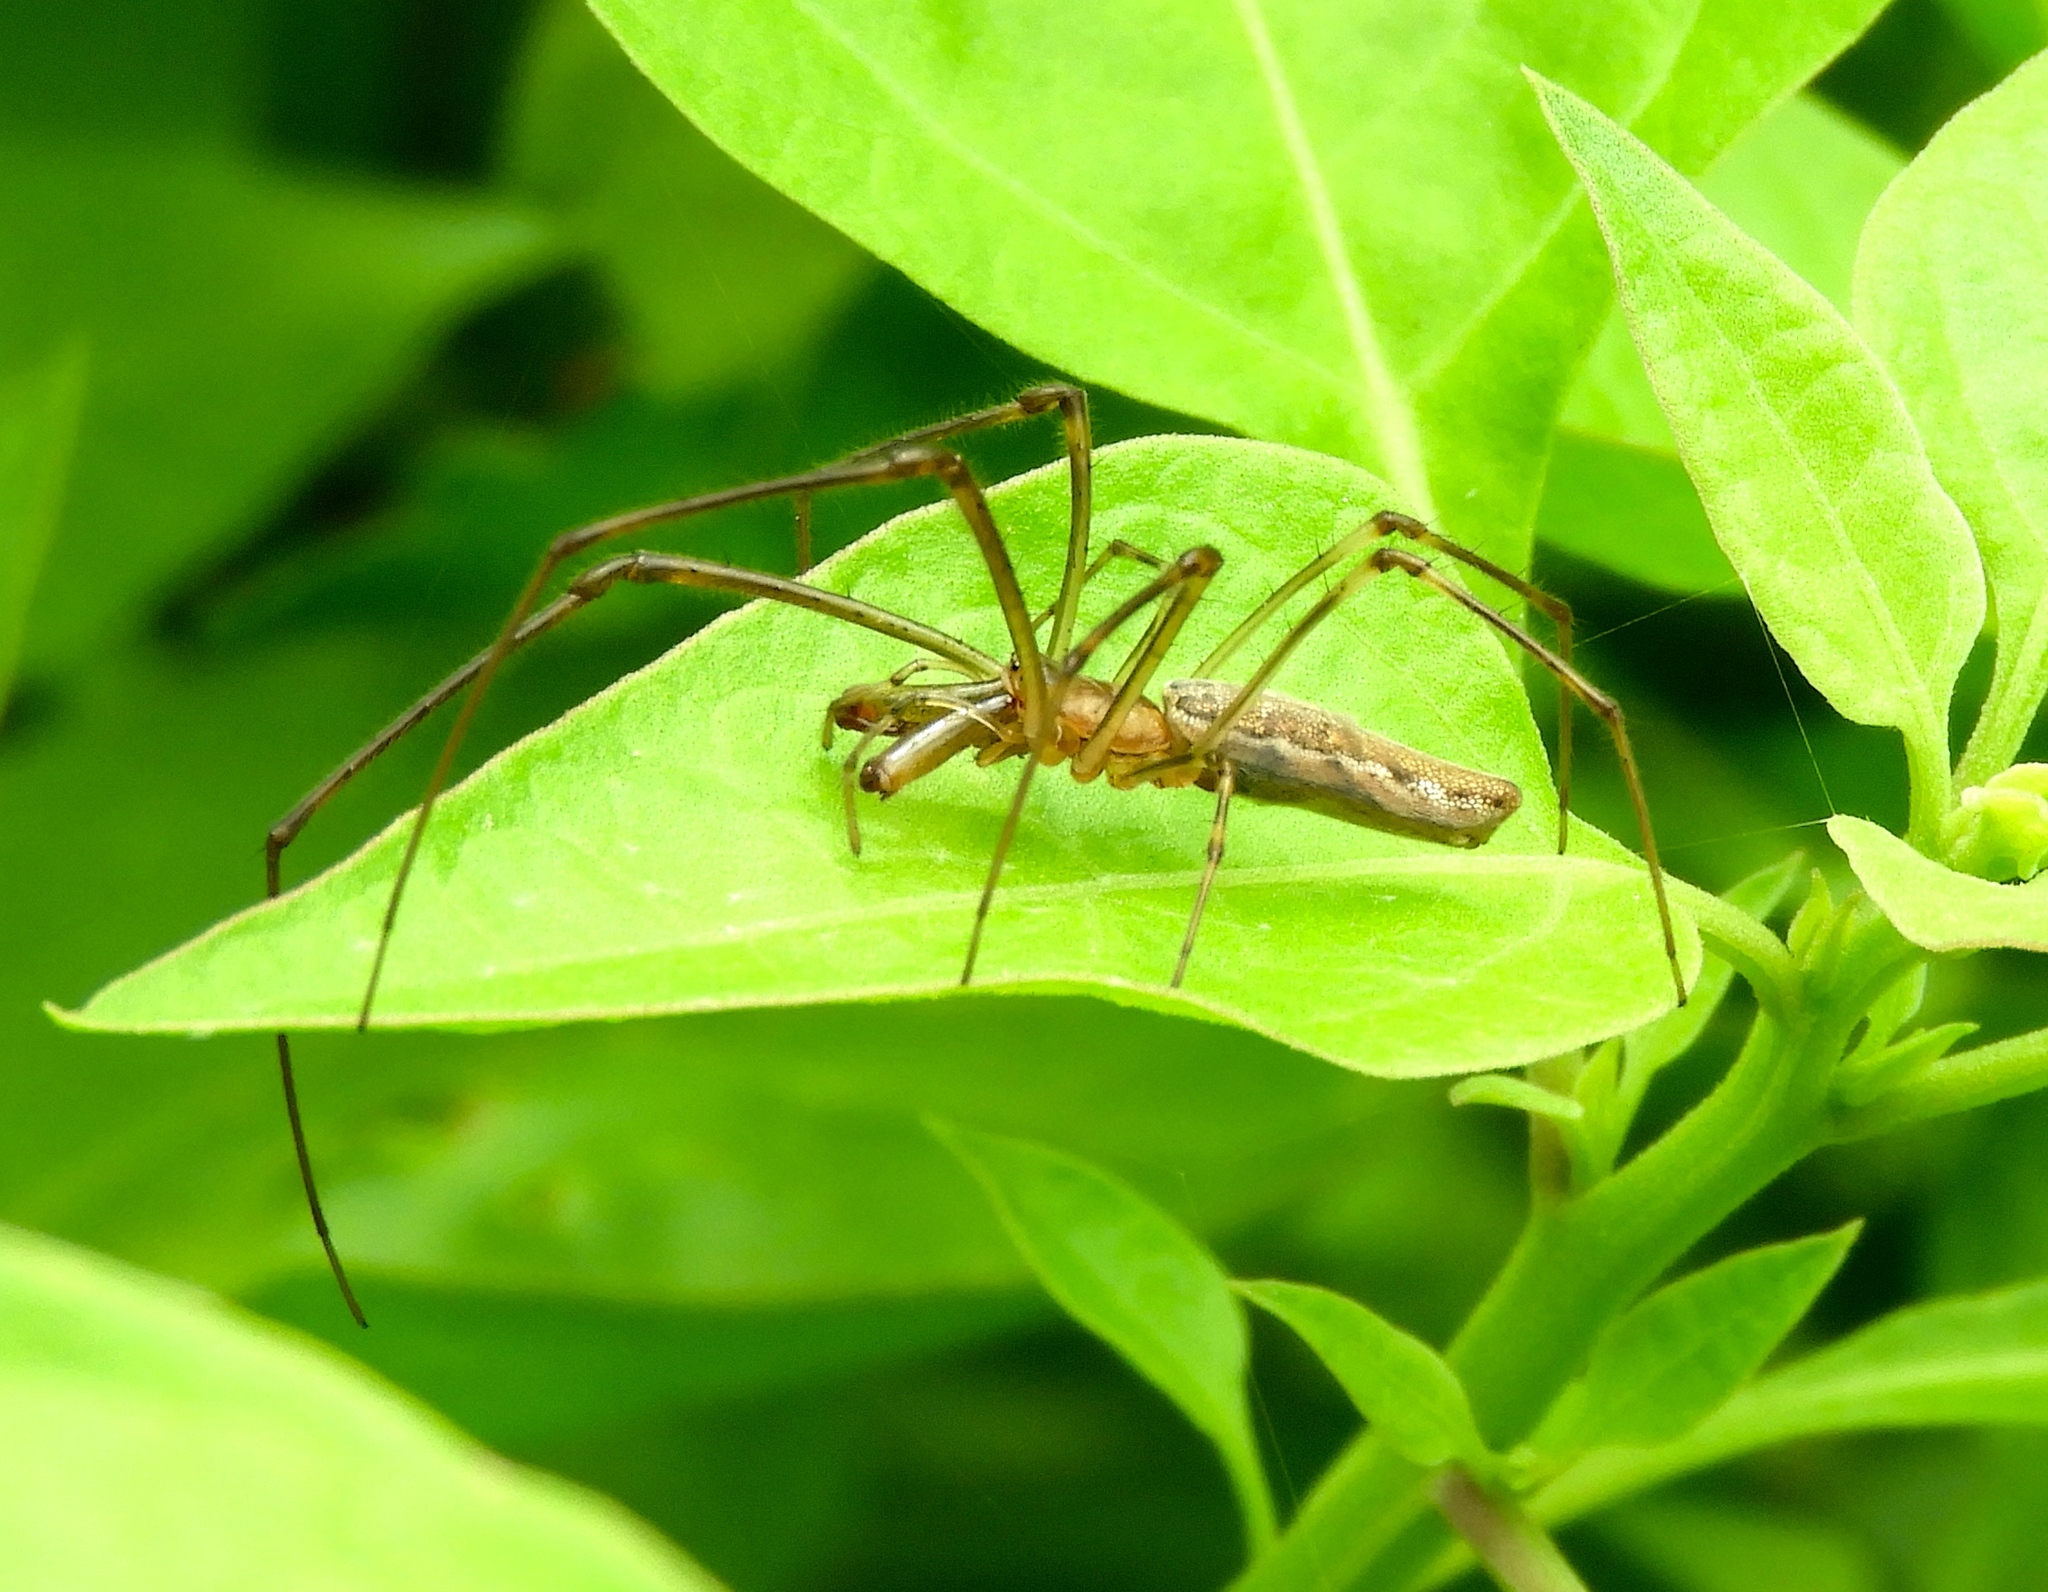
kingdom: Animalia
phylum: Arthropoda
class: Arachnida
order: Araneae
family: Tetragnathidae
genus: Tetragnatha
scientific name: Tetragnatha
